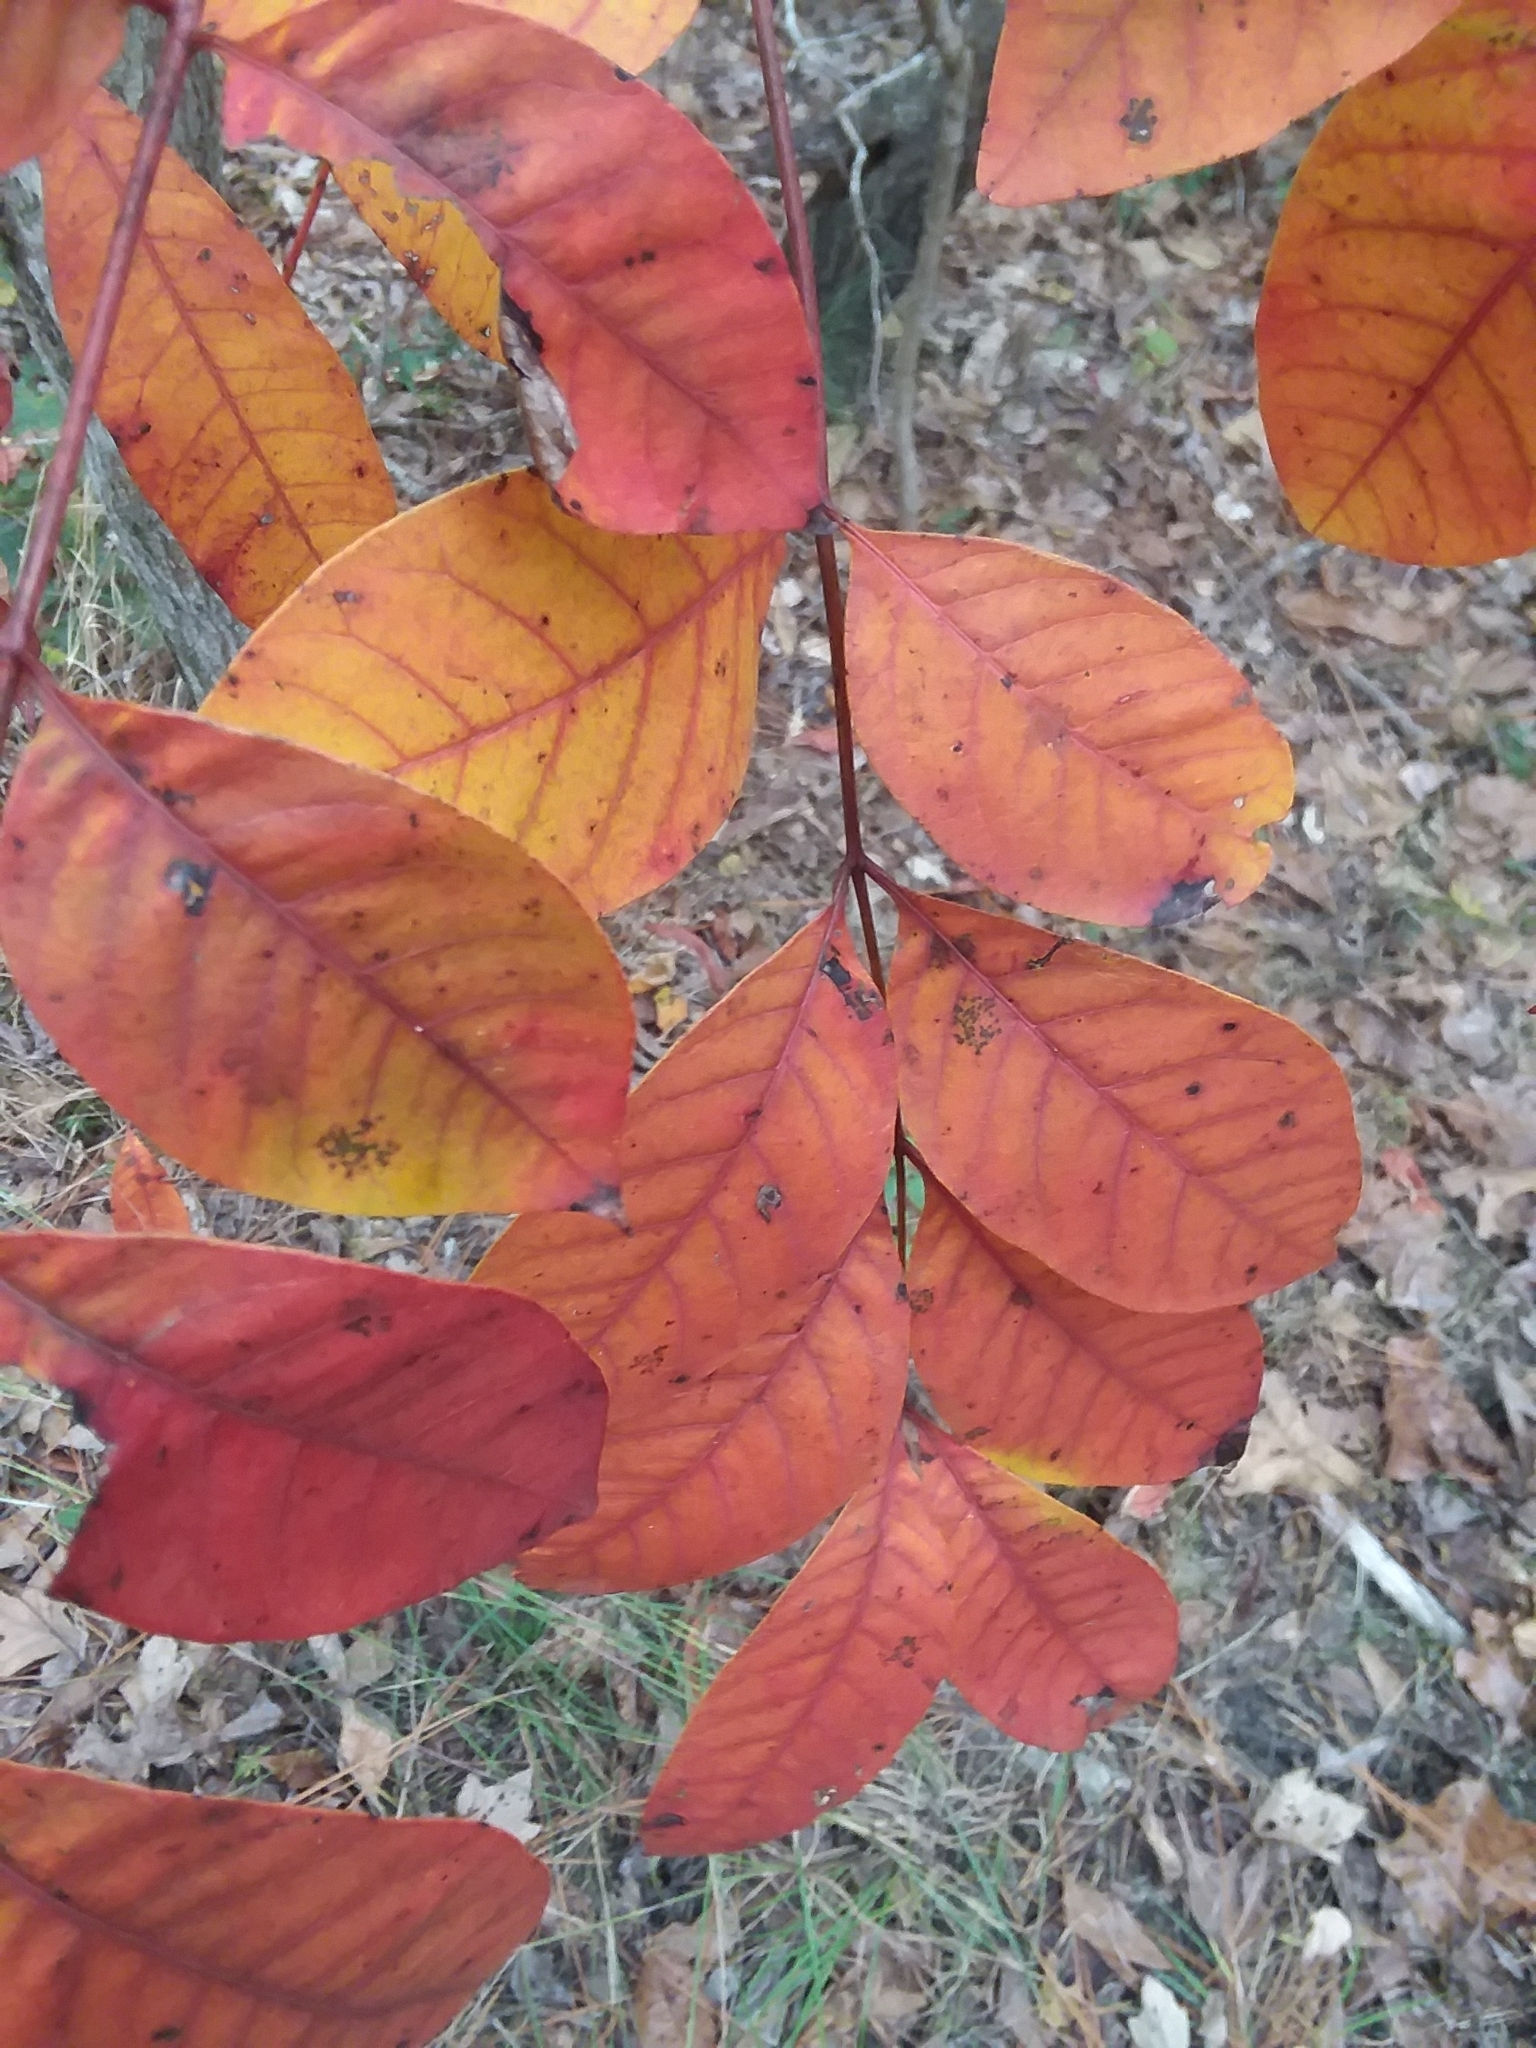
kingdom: Plantae
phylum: Tracheophyta
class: Magnoliopsida
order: Sapindales
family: Anacardiaceae
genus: Toxicodendron
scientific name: Toxicodendron vernix
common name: Poison sumac
